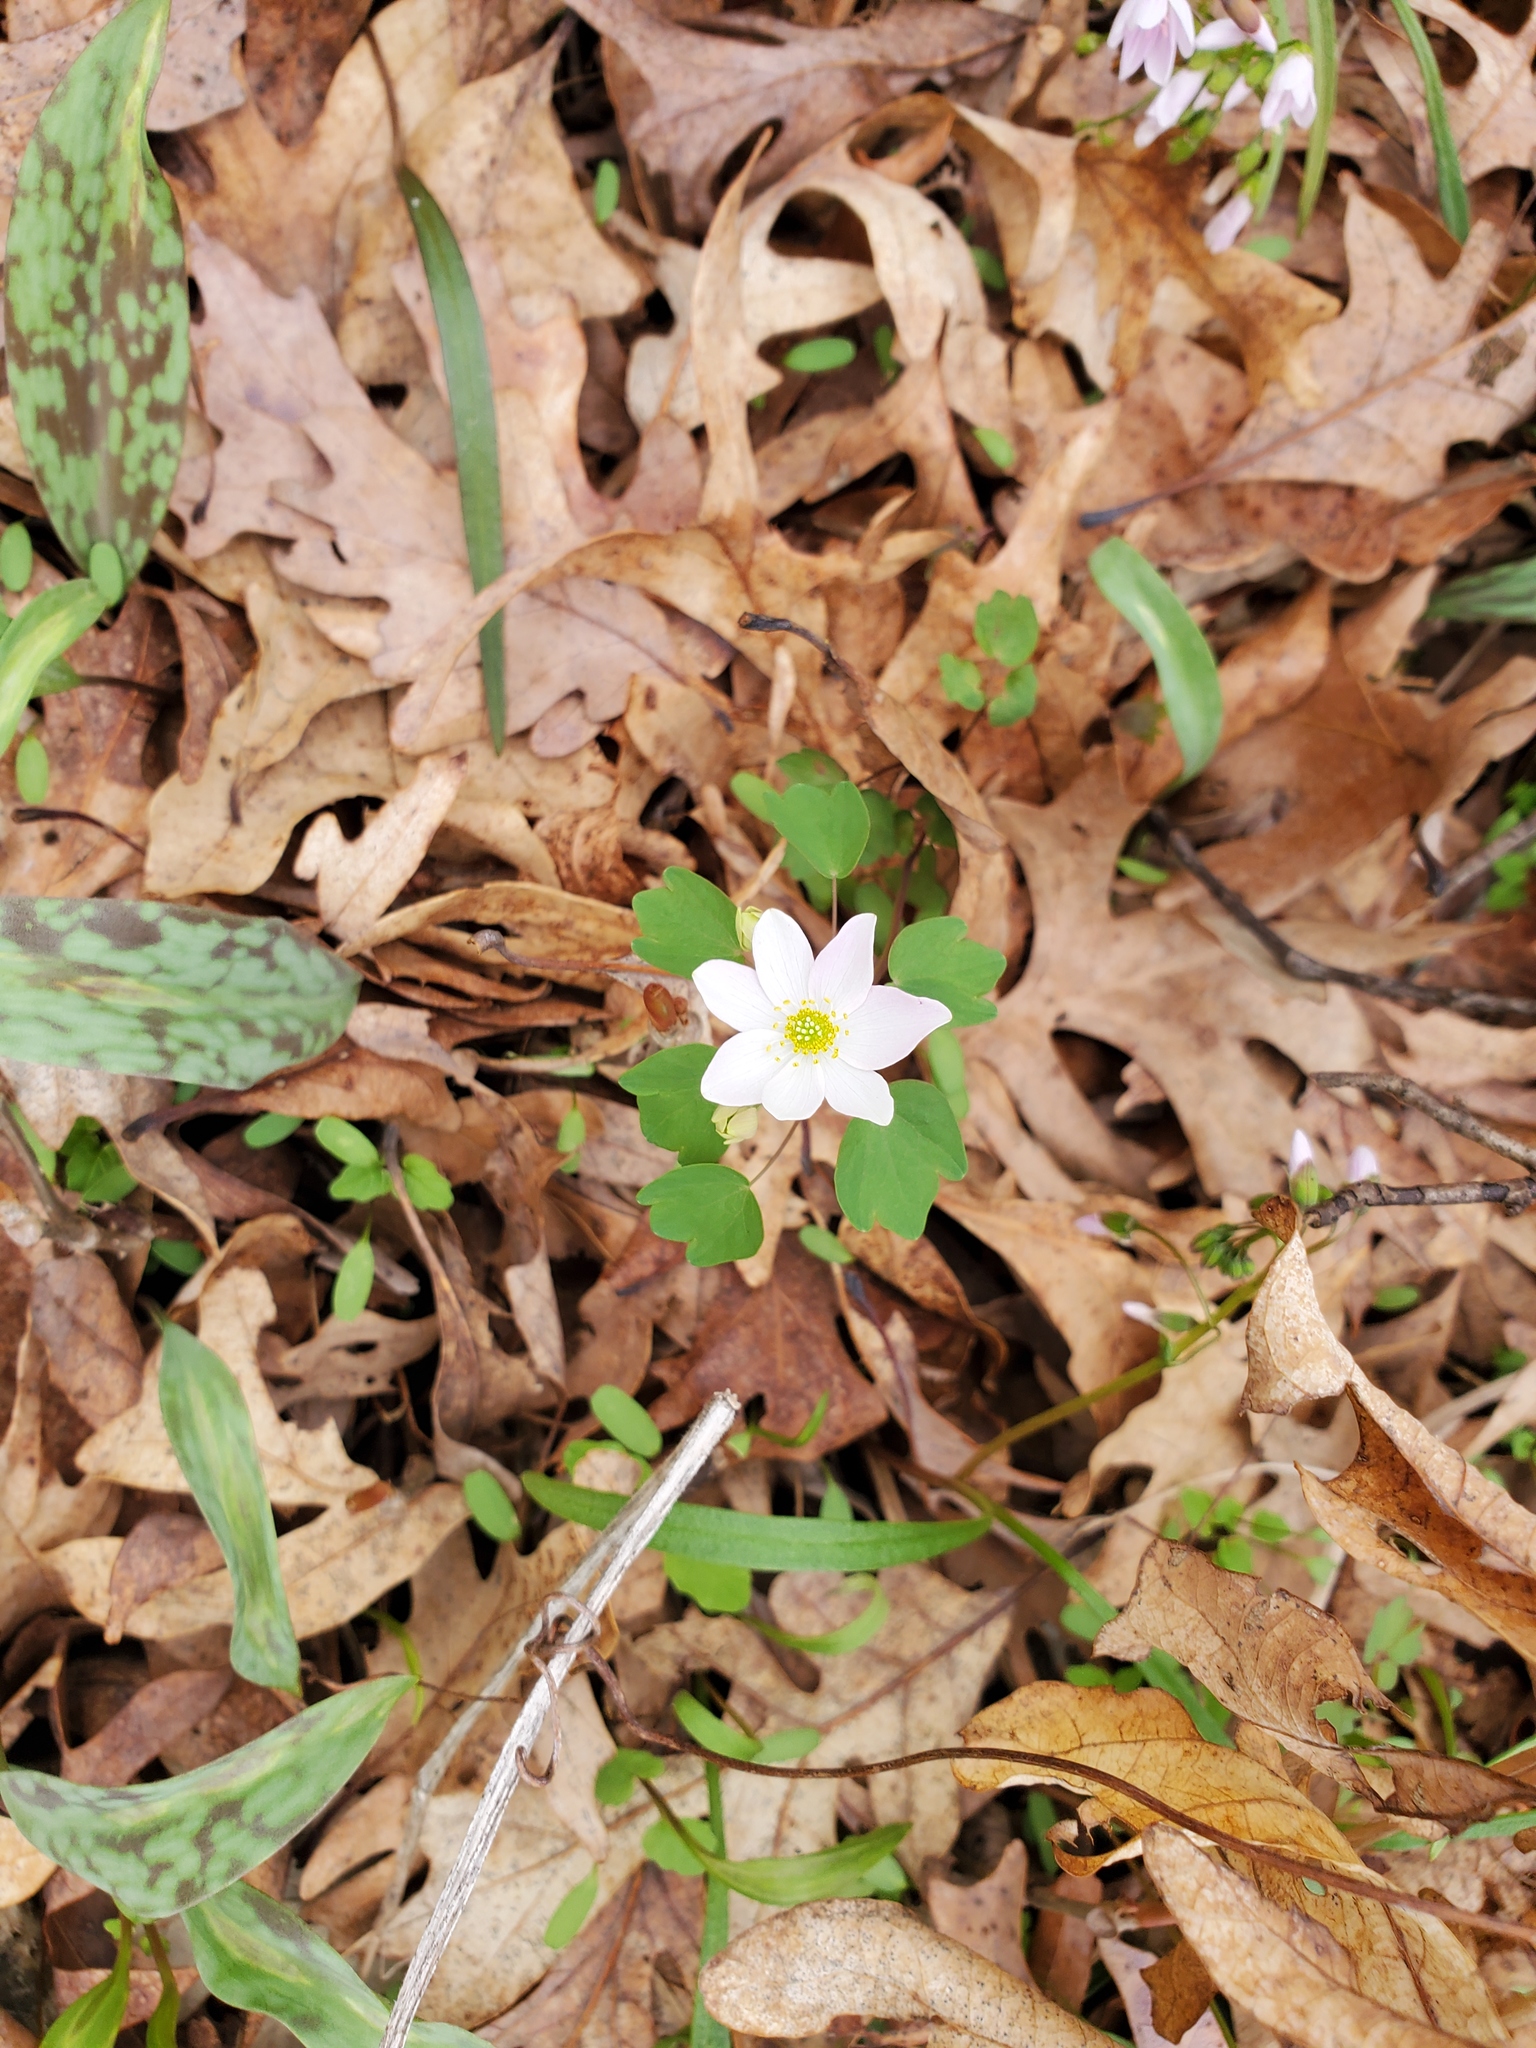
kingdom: Plantae
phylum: Tracheophyta
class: Magnoliopsida
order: Ranunculales
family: Ranunculaceae
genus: Thalictrum
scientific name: Thalictrum thalictroides
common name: Rue-anemone
